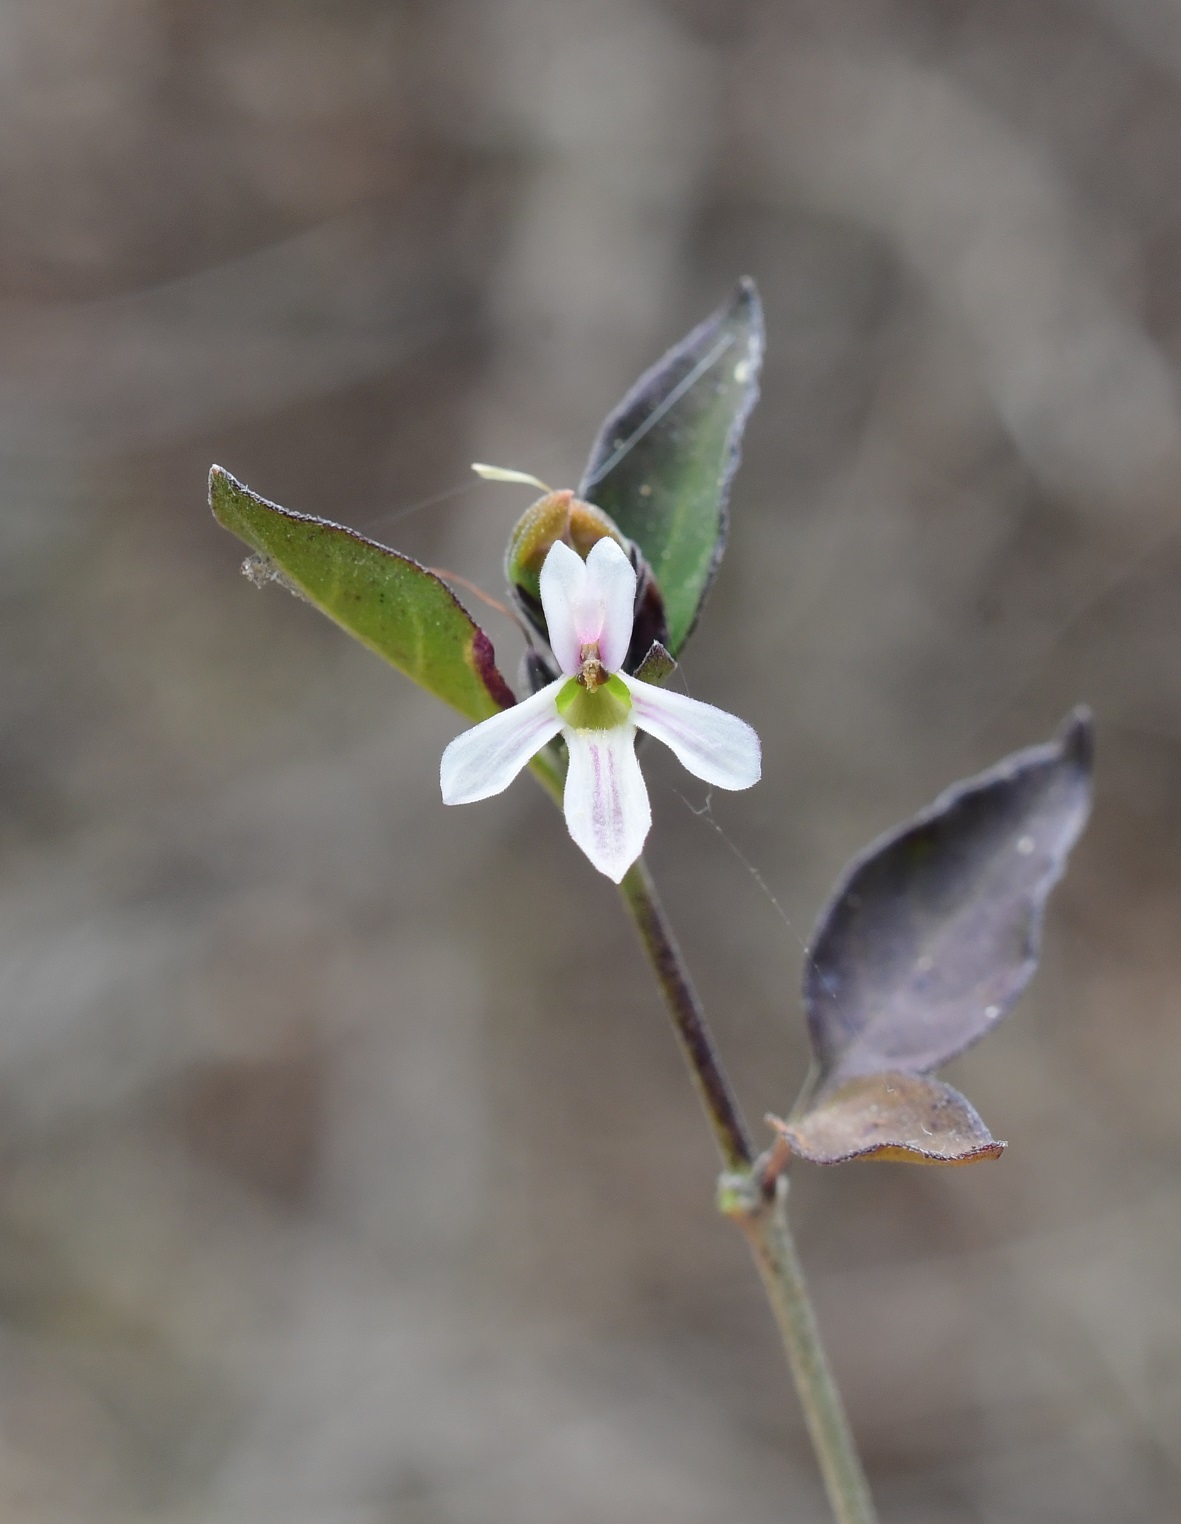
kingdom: Plantae
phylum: Tracheophyta
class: Magnoliopsida
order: Lamiales
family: Acanthaceae
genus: Holographis
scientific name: Holographis parayana
